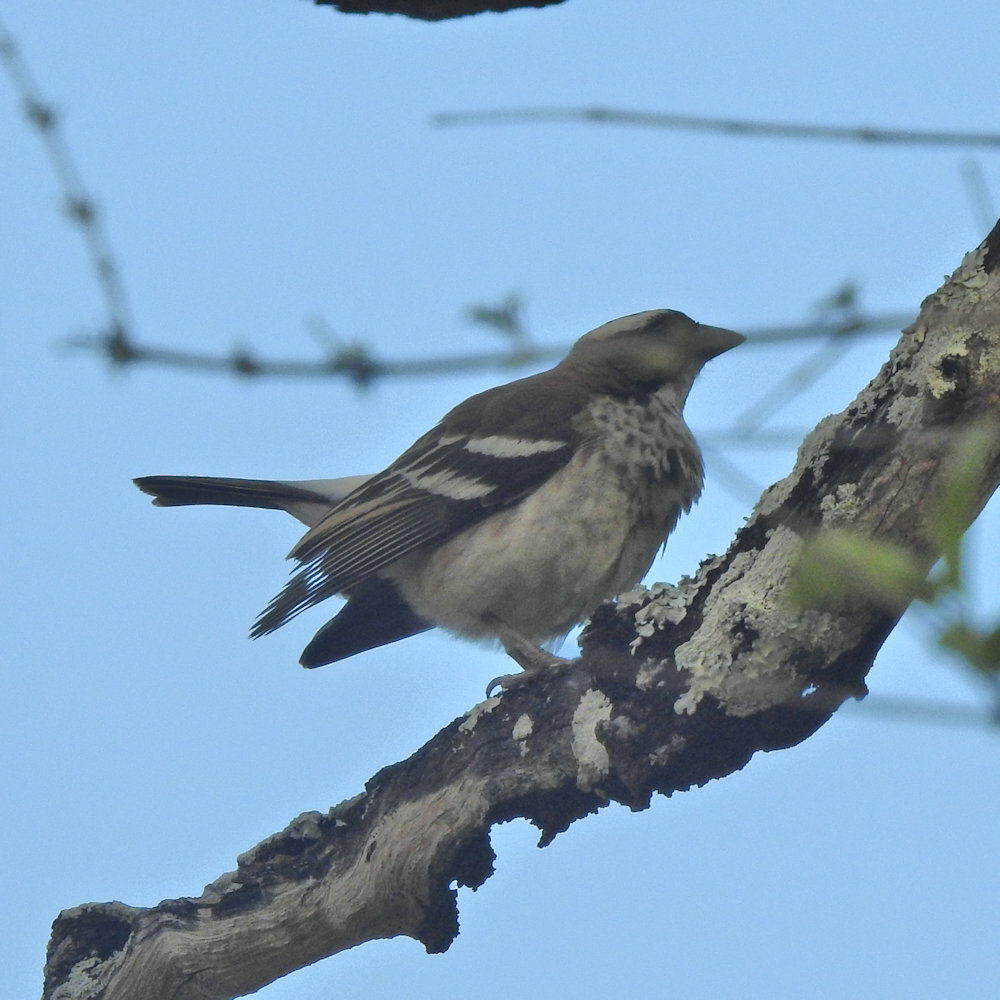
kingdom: Animalia
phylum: Chordata
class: Aves
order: Passeriformes
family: Passeridae
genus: Plocepasser
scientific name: Plocepasser mahali
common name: White-browed sparrow-weaver
